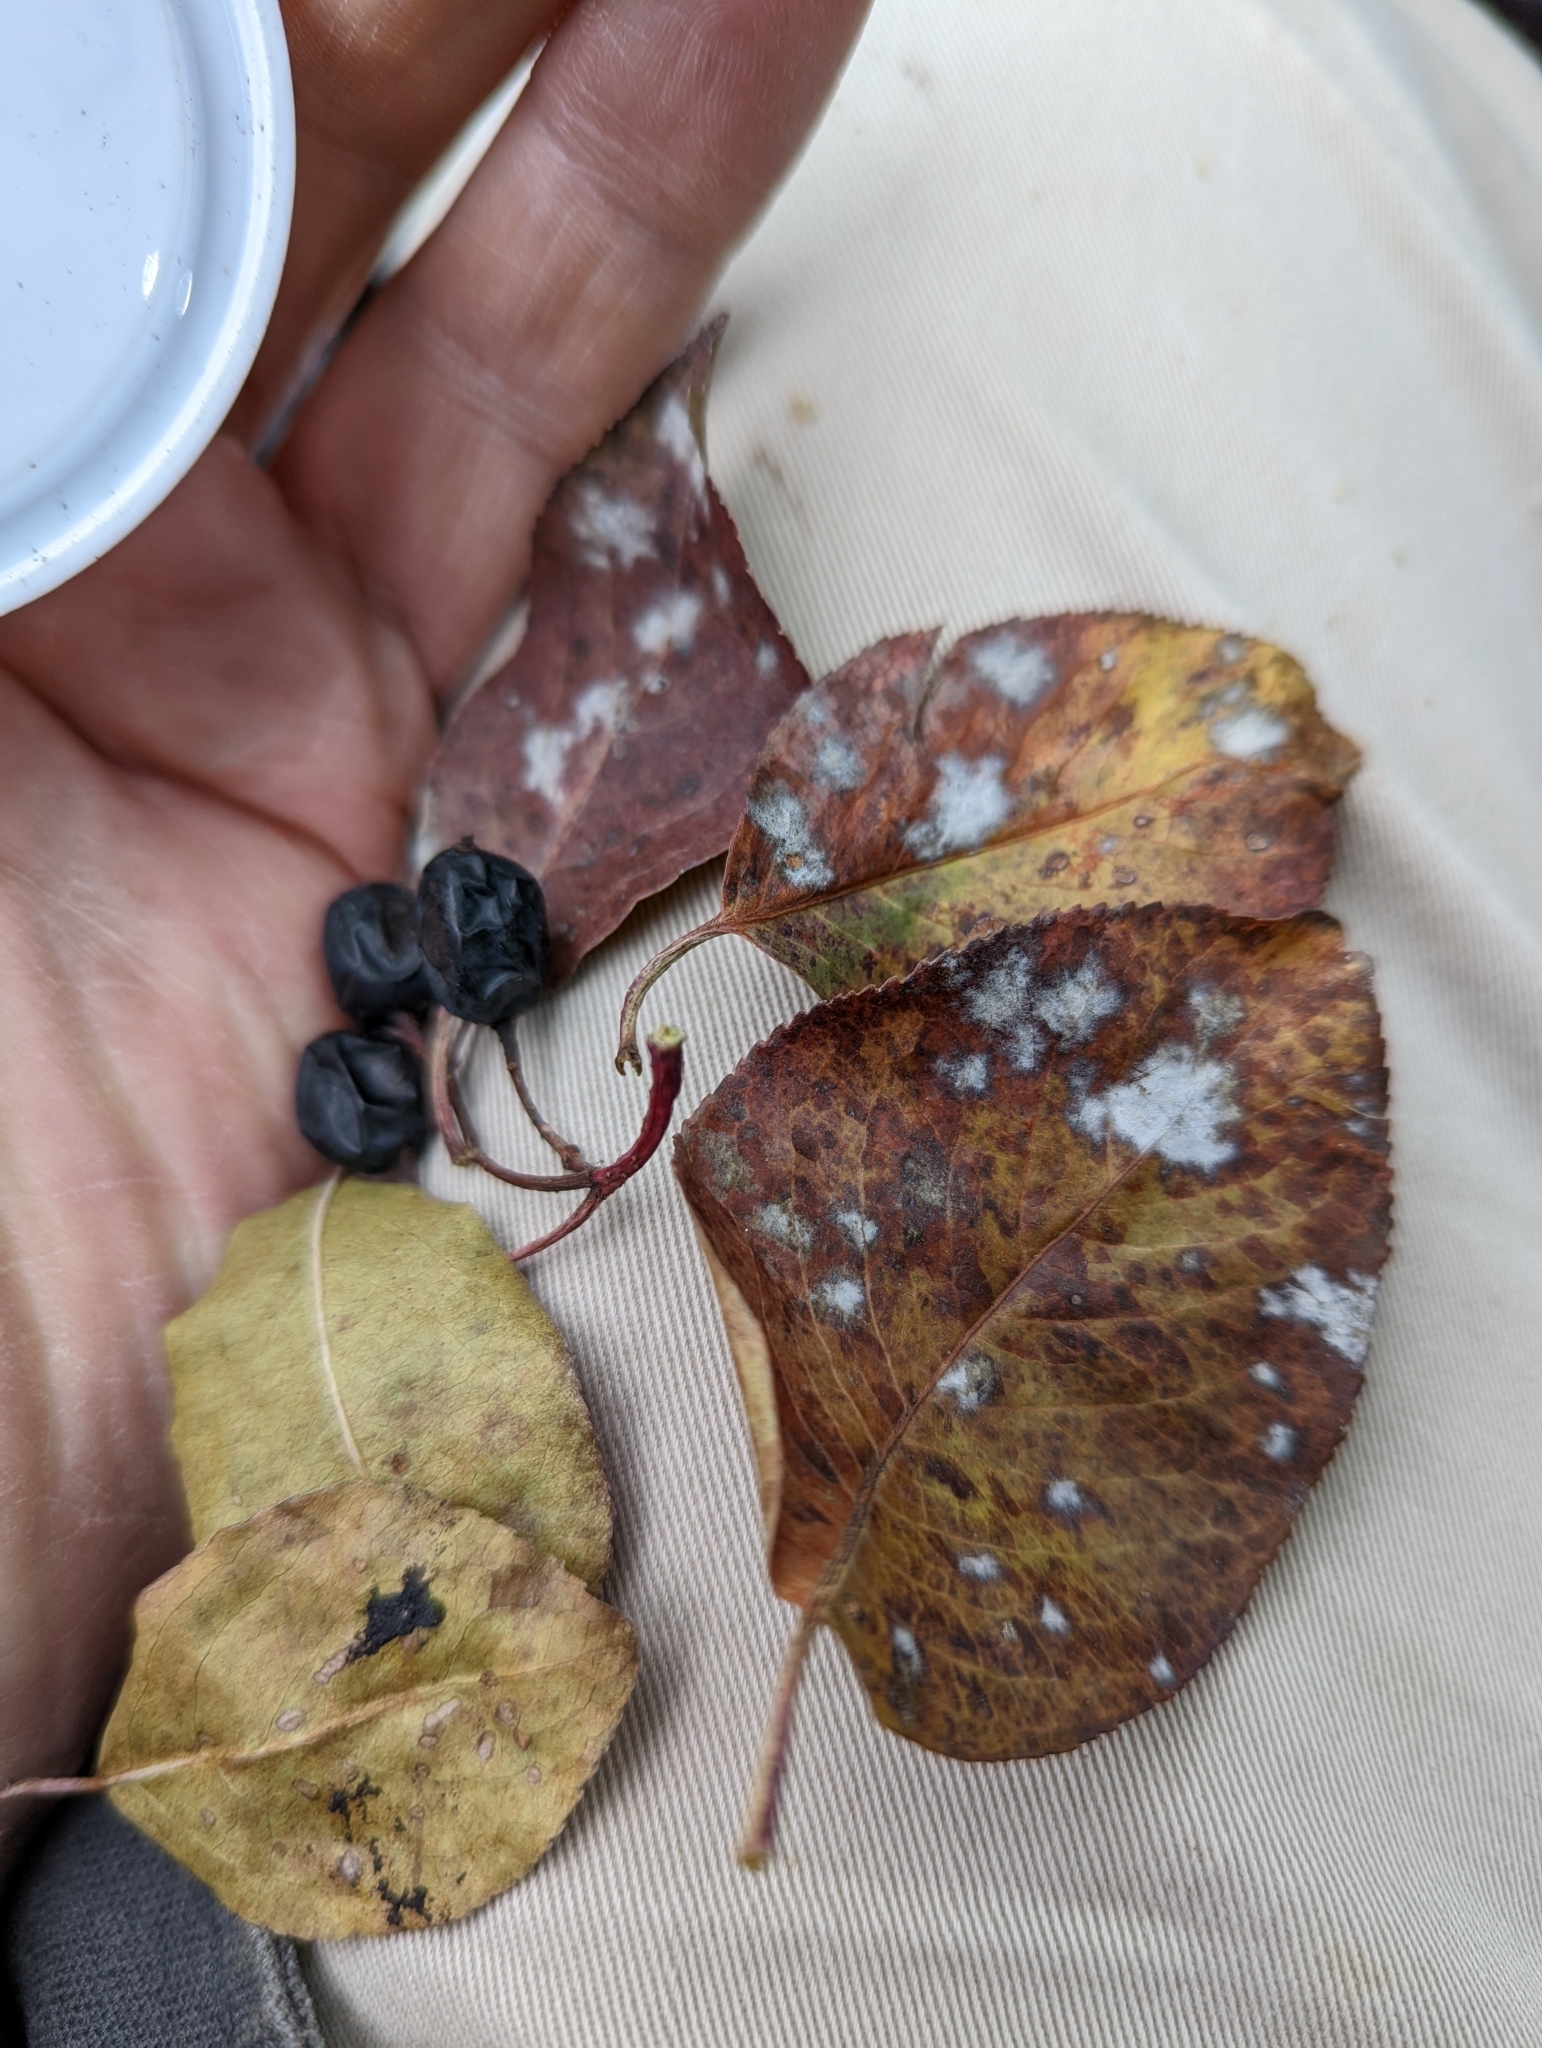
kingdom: Fungi
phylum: Ascomycota
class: Leotiomycetes
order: Helotiales
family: Erysiphaceae
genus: Erysiphe
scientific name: Erysiphe viburni
